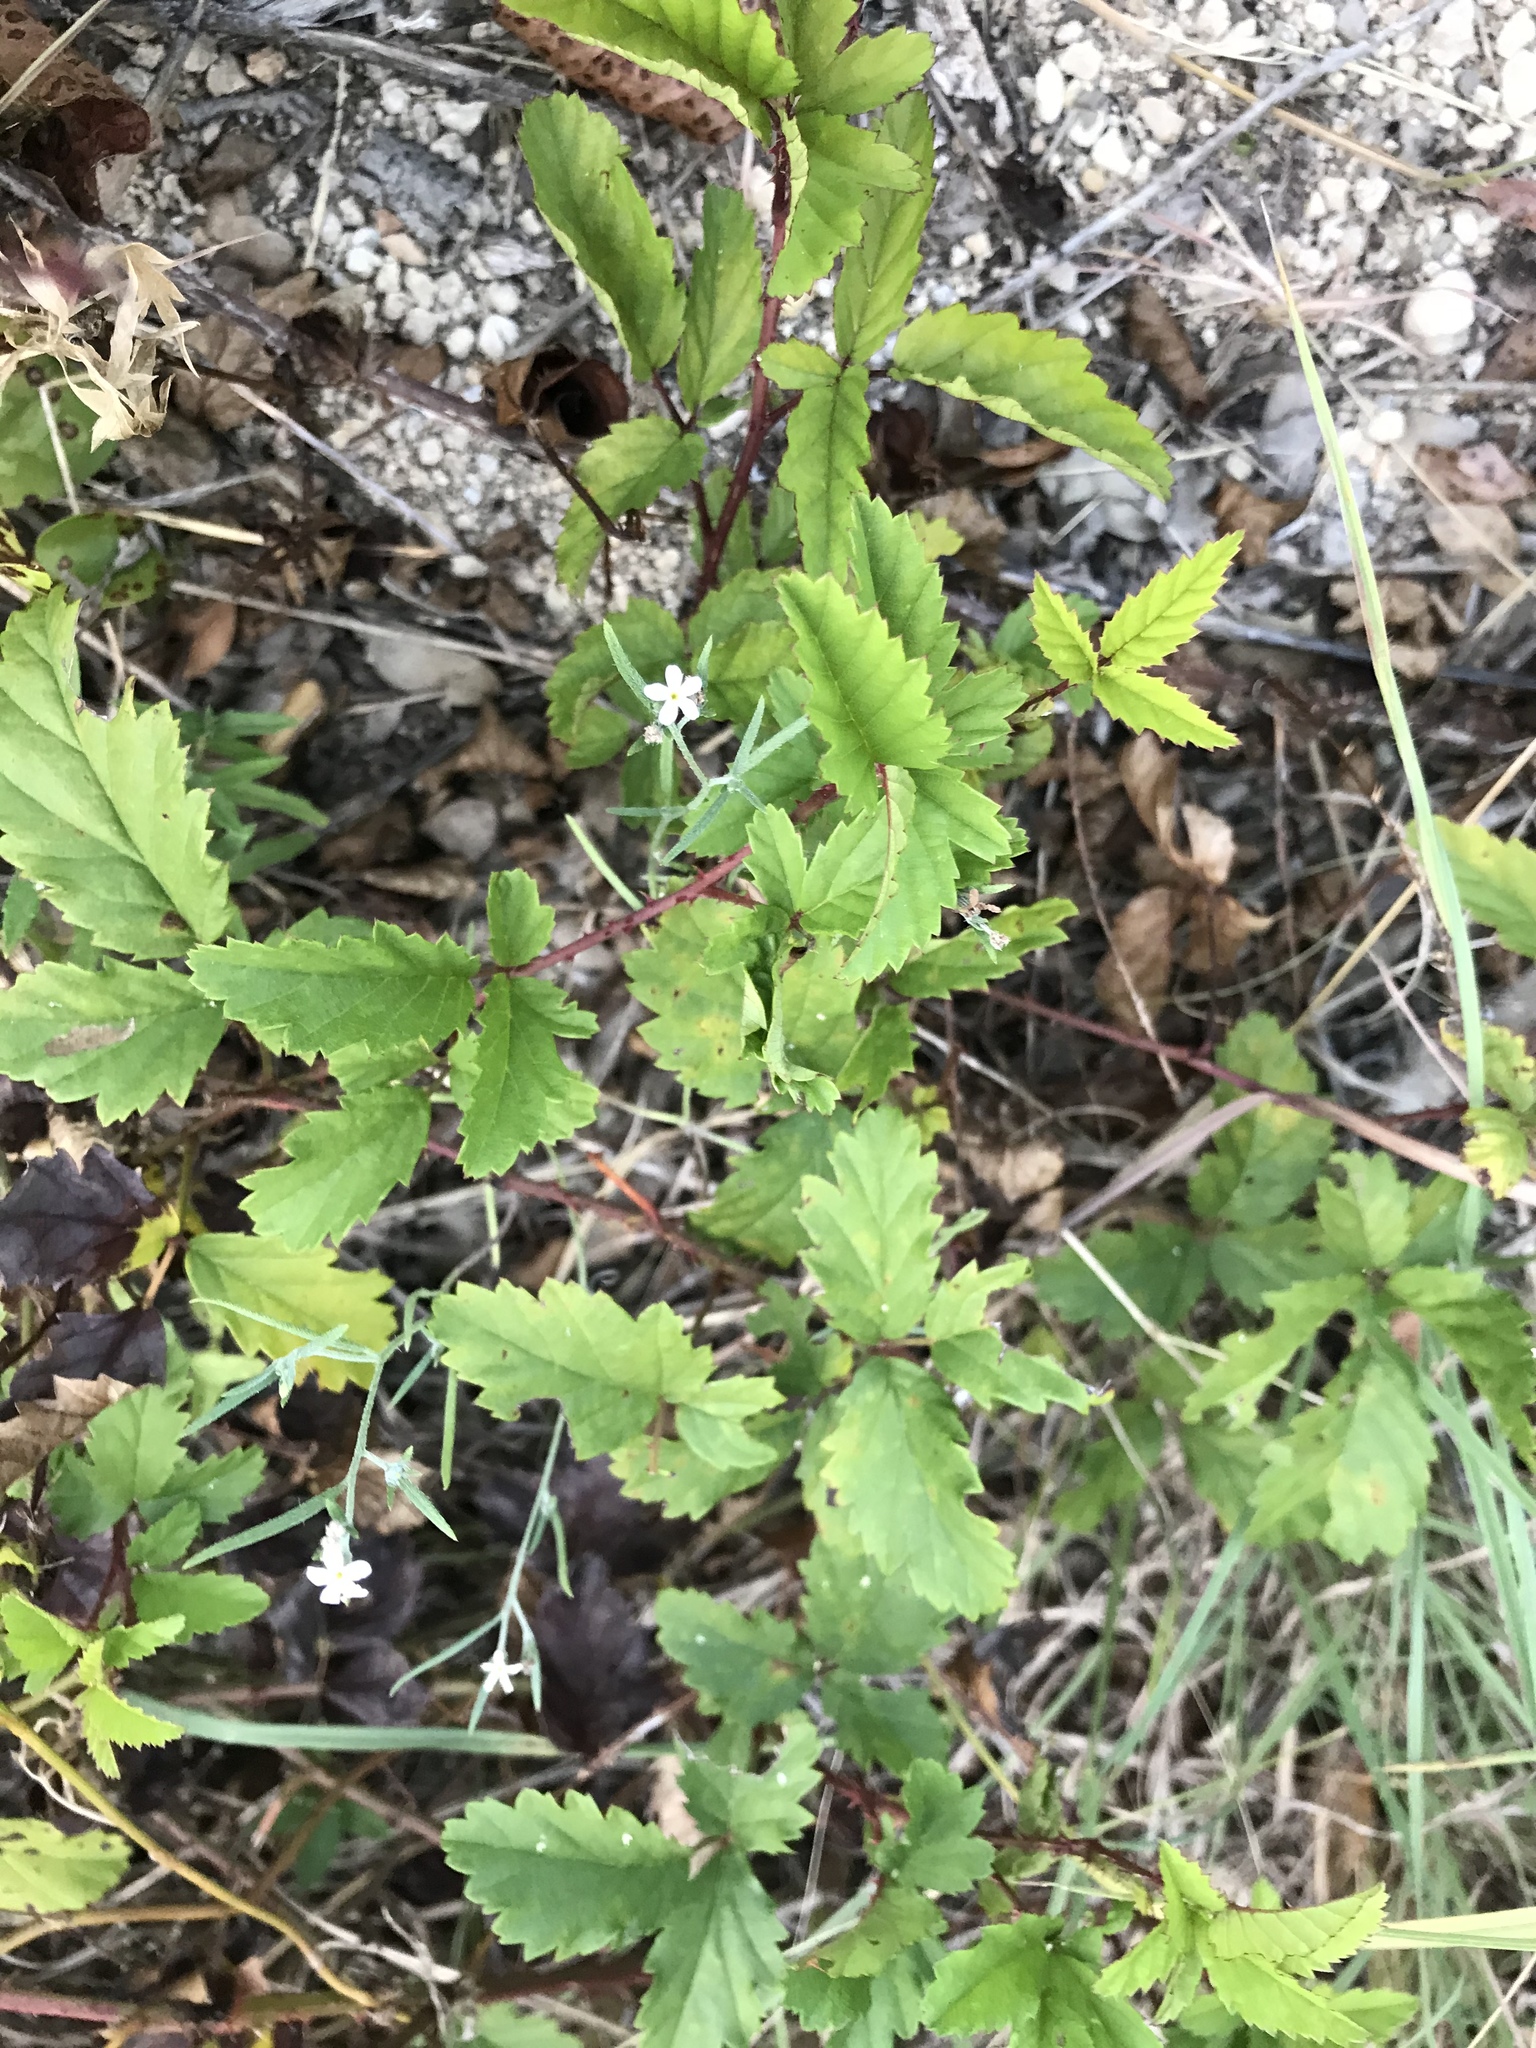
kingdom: Plantae
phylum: Tracheophyta
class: Magnoliopsida
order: Rosales
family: Rosaceae
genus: Rubus
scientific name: Rubus trivialis
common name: Southern dewberry
